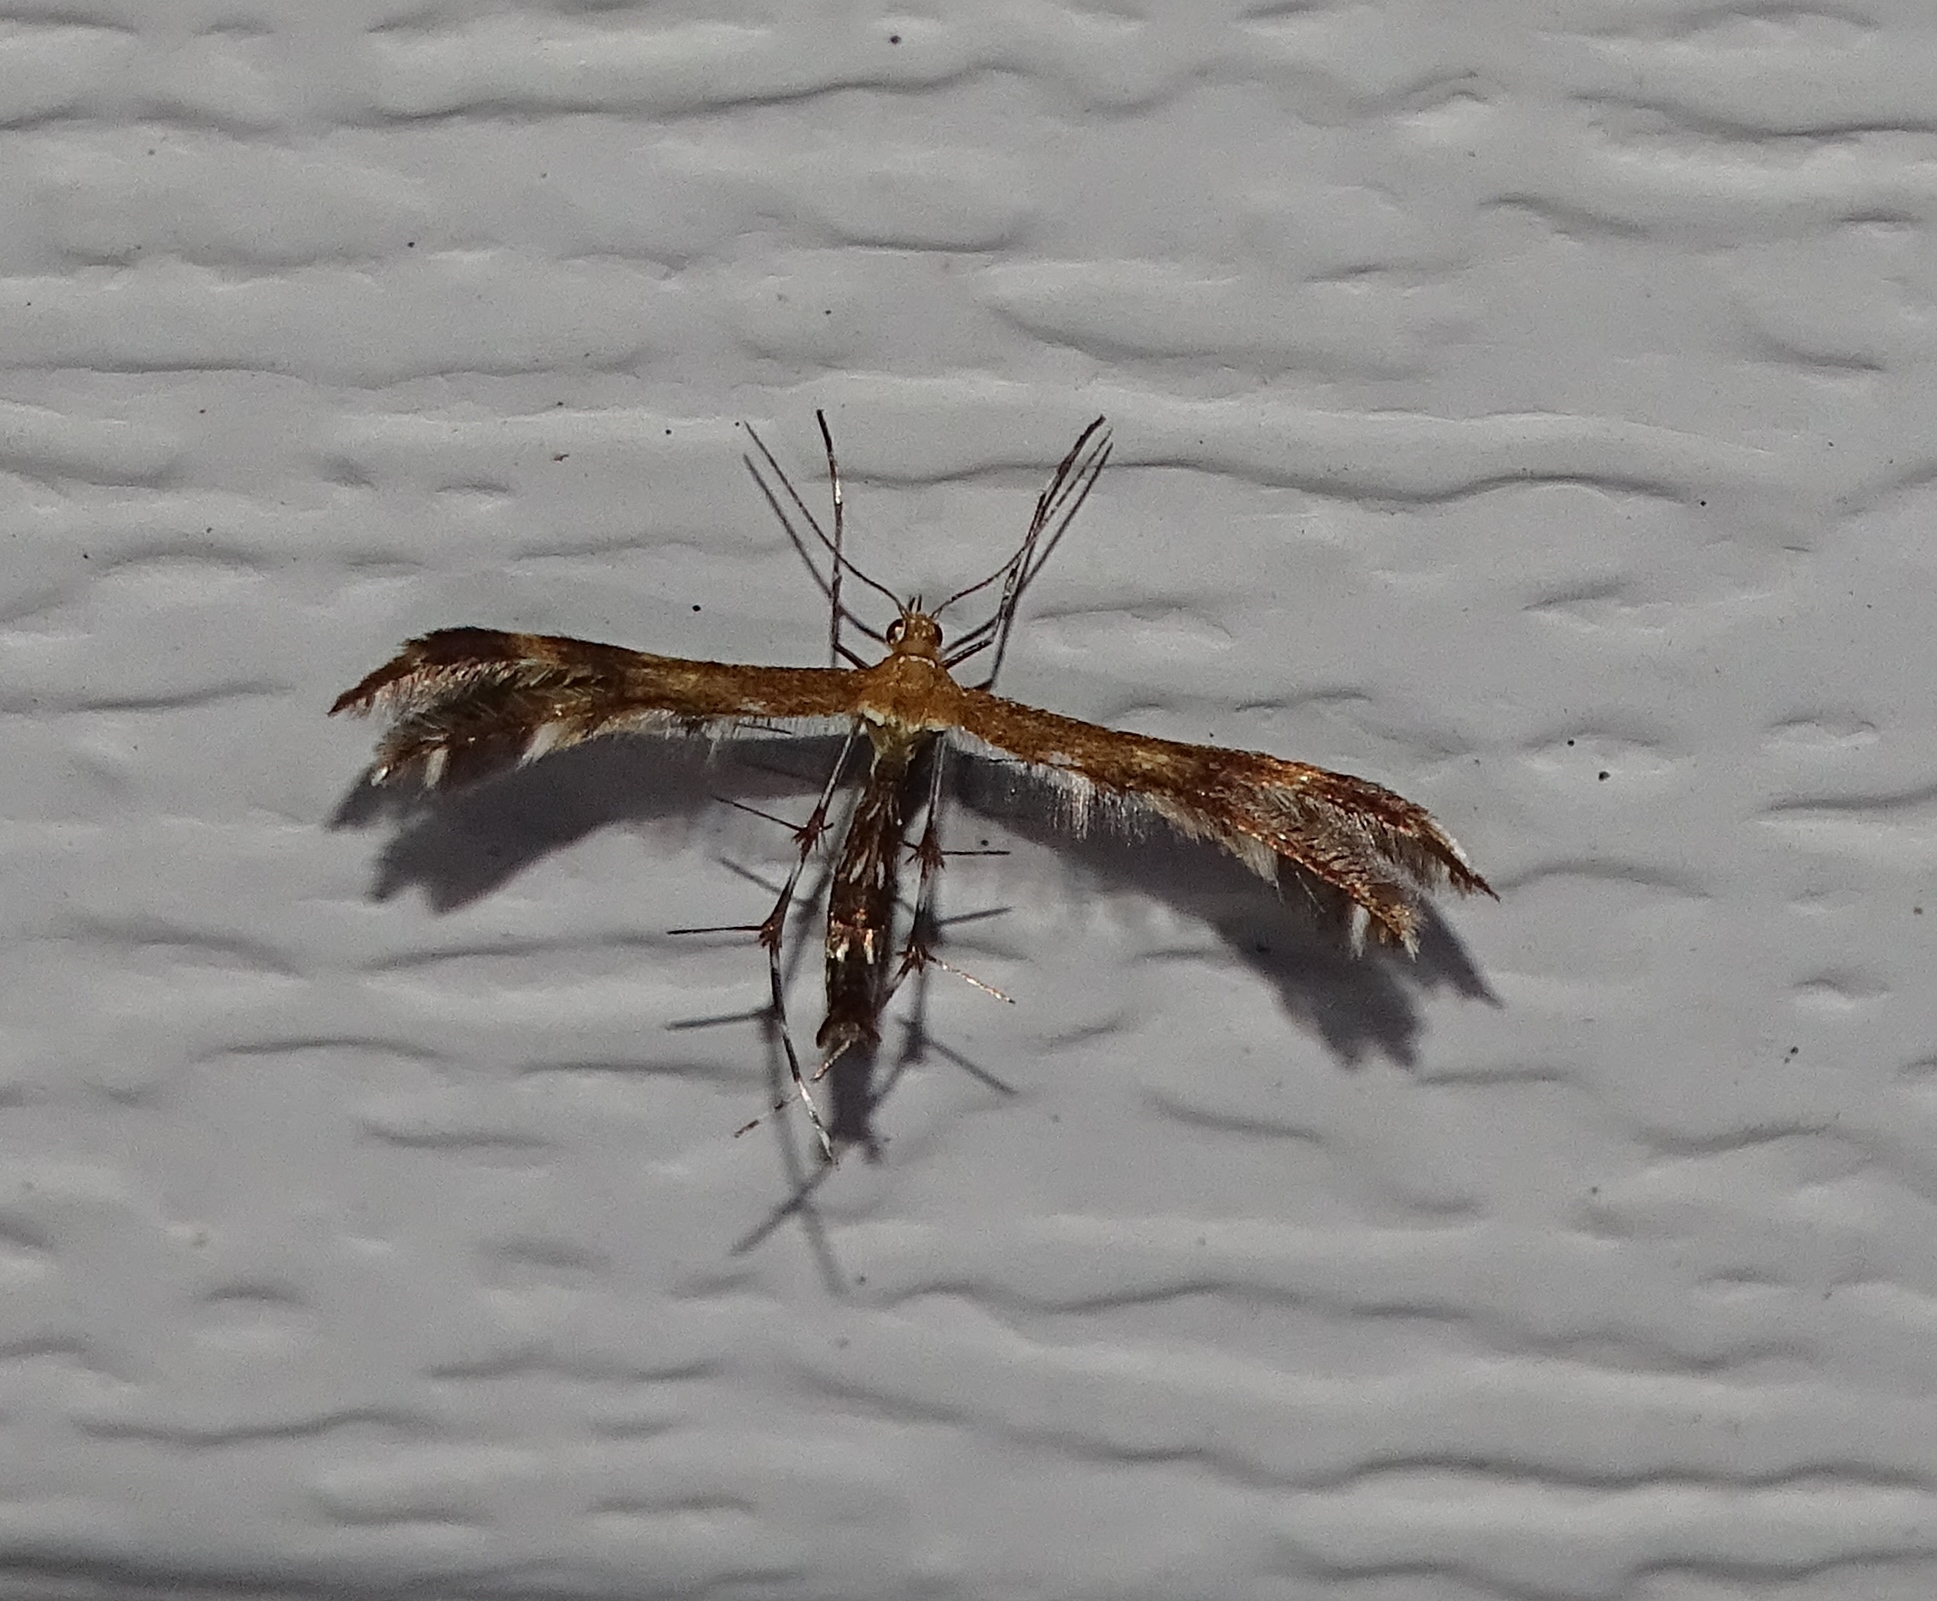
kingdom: Animalia
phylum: Arthropoda
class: Insecta
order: Lepidoptera
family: Pterophoridae
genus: Dejongia
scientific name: Dejongia lobidactylus
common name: Lobed plume moth
